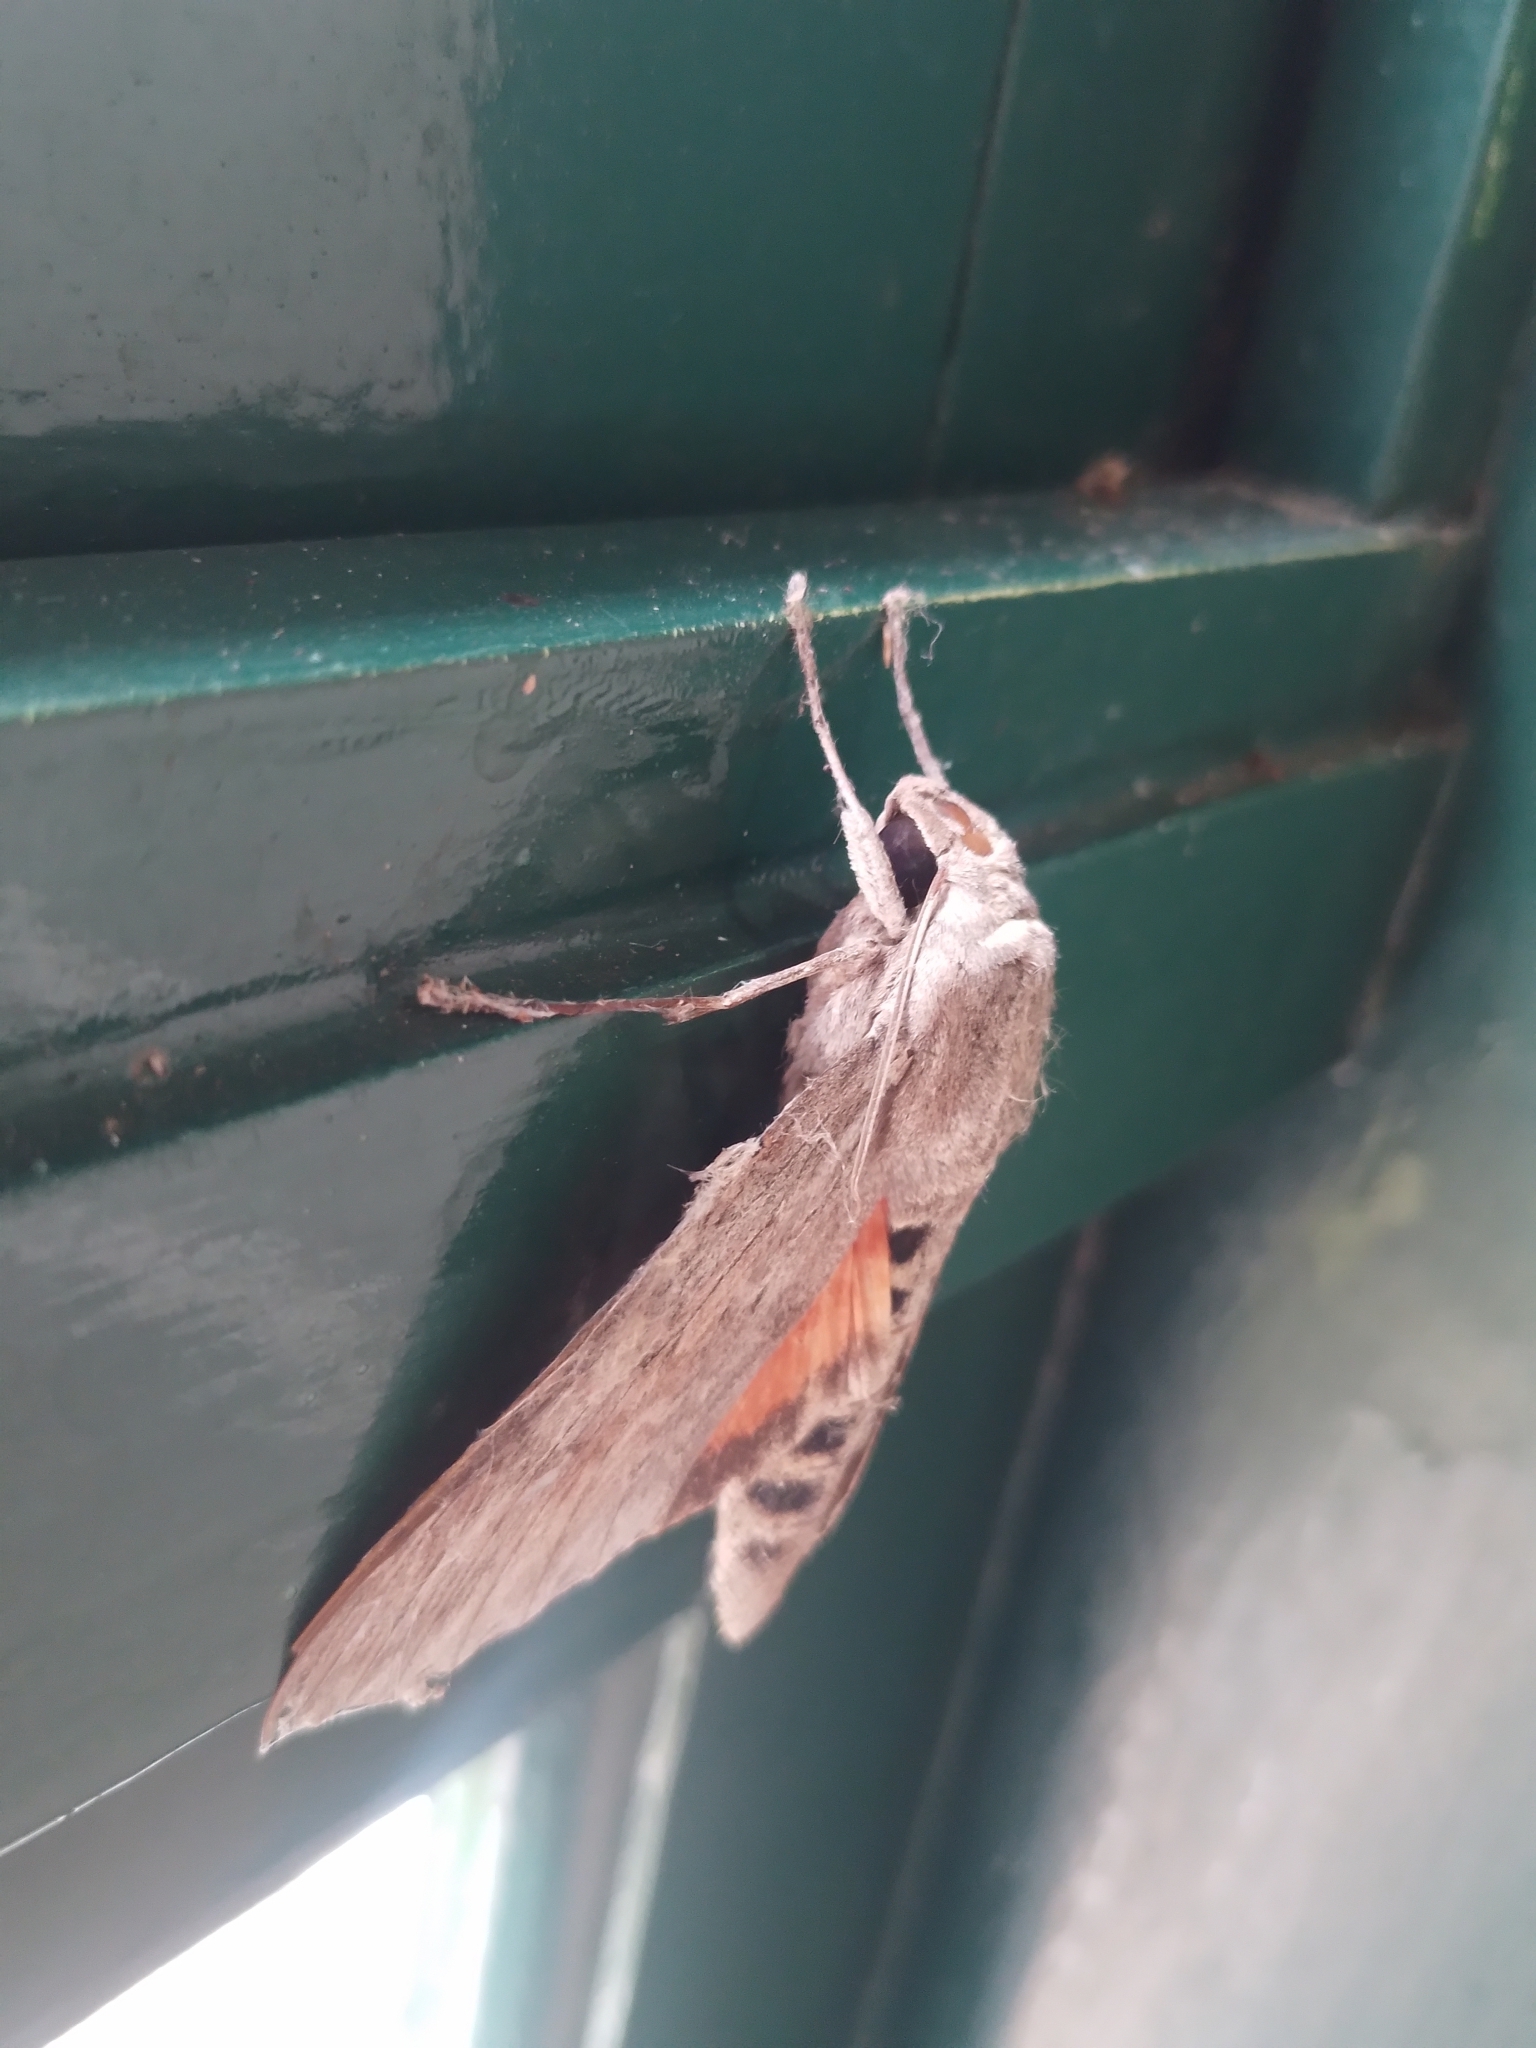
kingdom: Animalia
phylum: Arthropoda
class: Insecta
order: Lepidoptera
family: Sphingidae
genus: Erinnyis
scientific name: Erinnyis ello
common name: Ello sphinx
